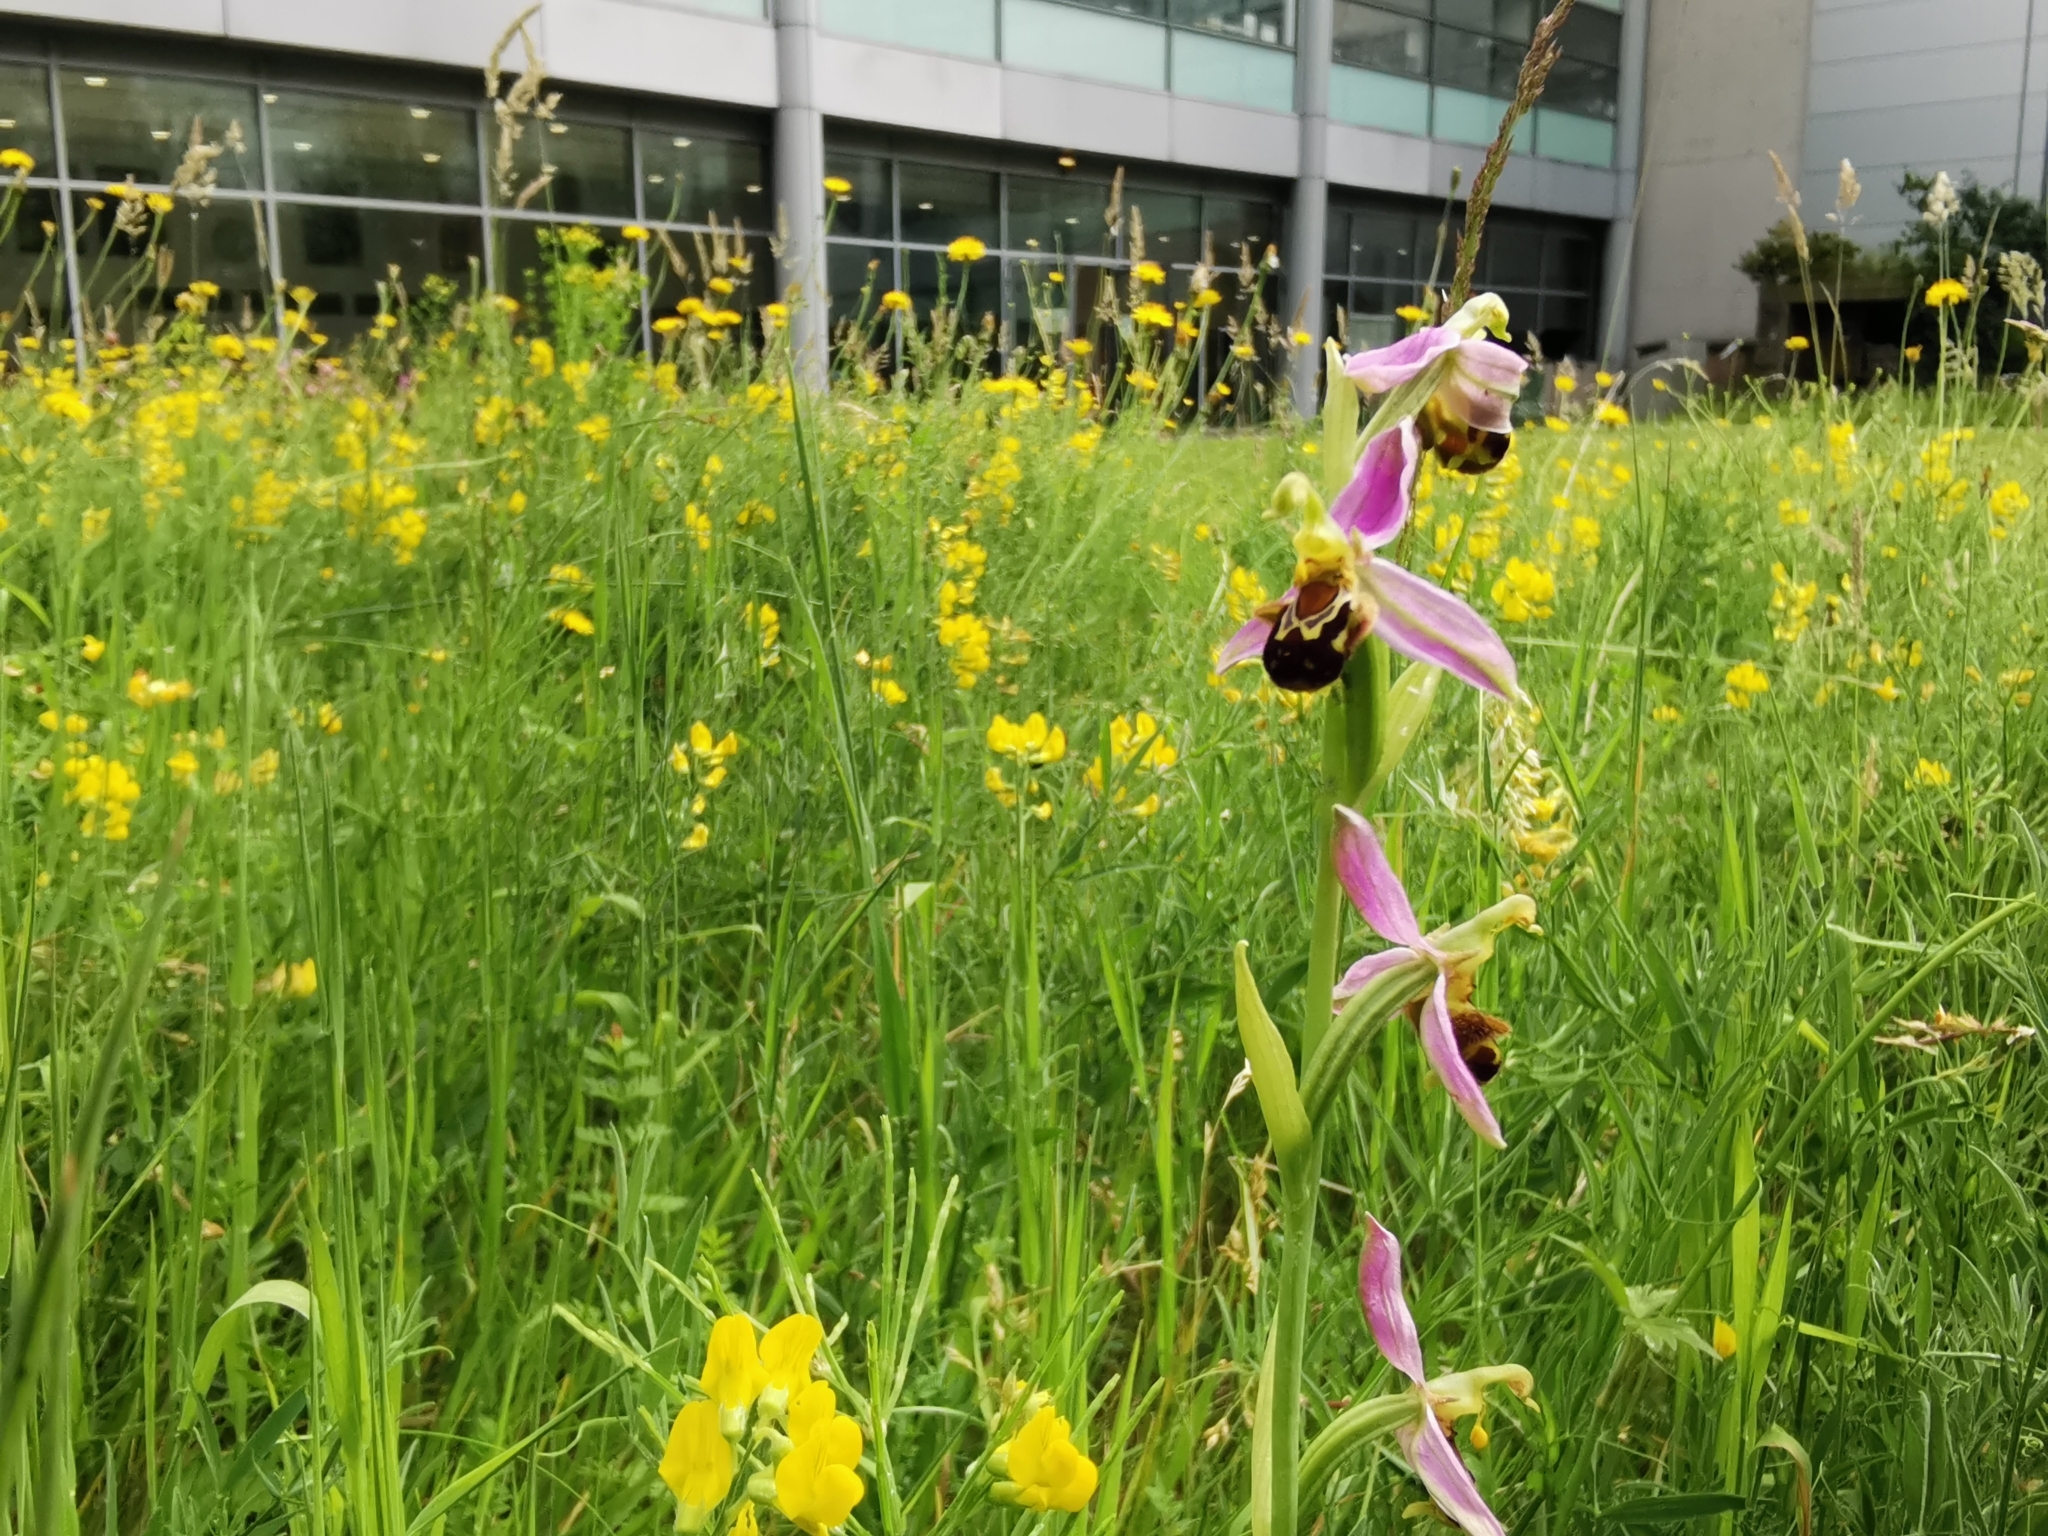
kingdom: Plantae
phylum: Tracheophyta
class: Liliopsida
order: Asparagales
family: Orchidaceae
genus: Ophrys
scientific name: Ophrys apifera
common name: Bee orchid
